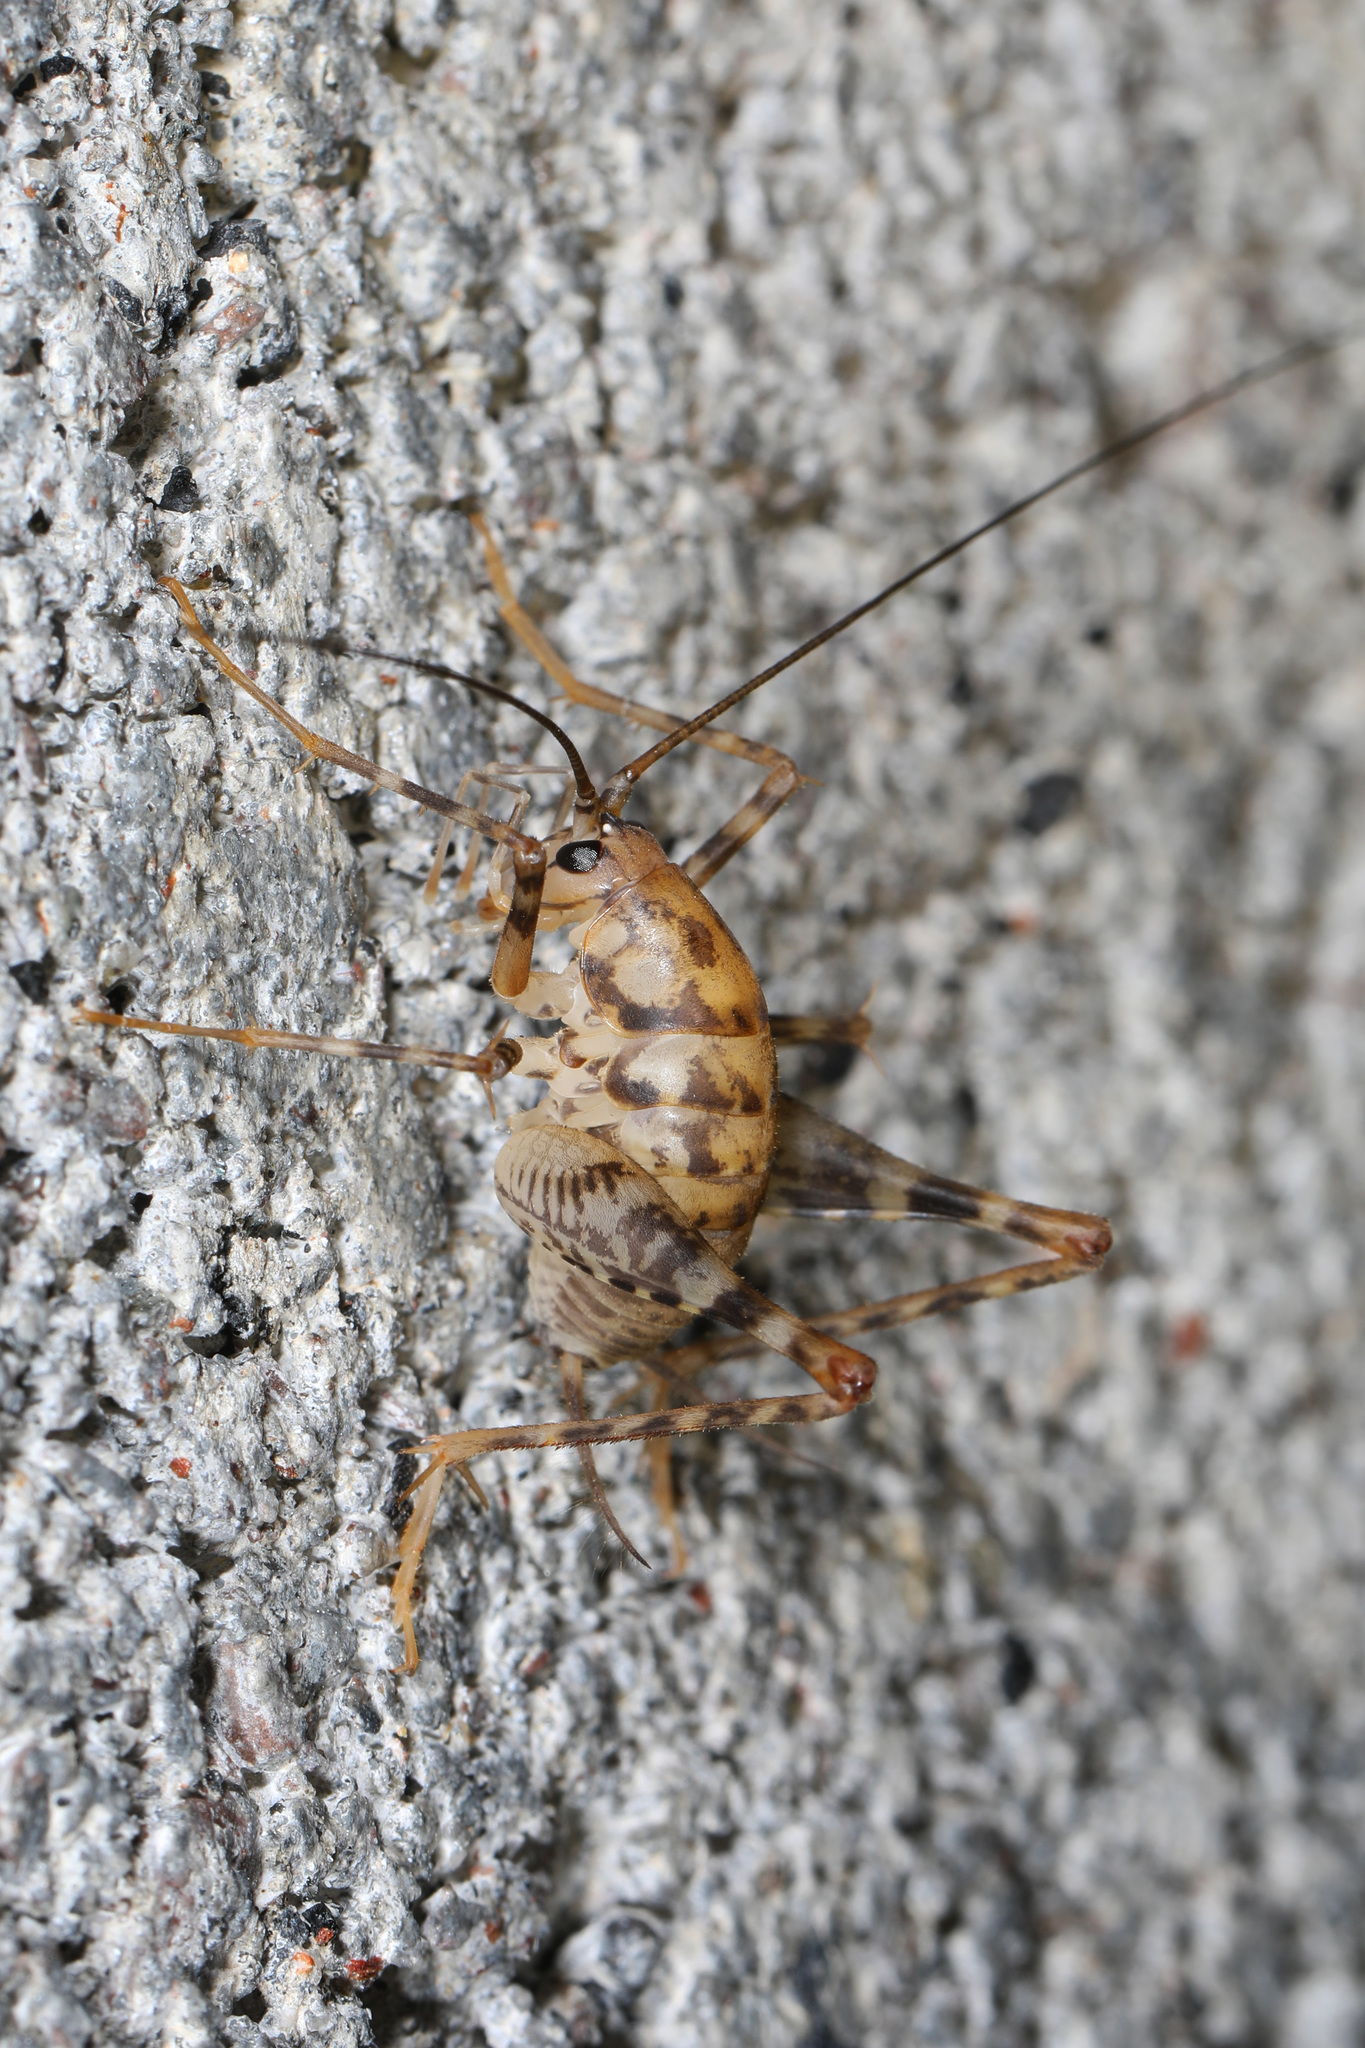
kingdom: Animalia
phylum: Arthropoda
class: Insecta
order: Orthoptera
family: Rhaphidophoridae
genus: Tachycines
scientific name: Tachycines asynamorus
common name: Greenhouse camel cricket
